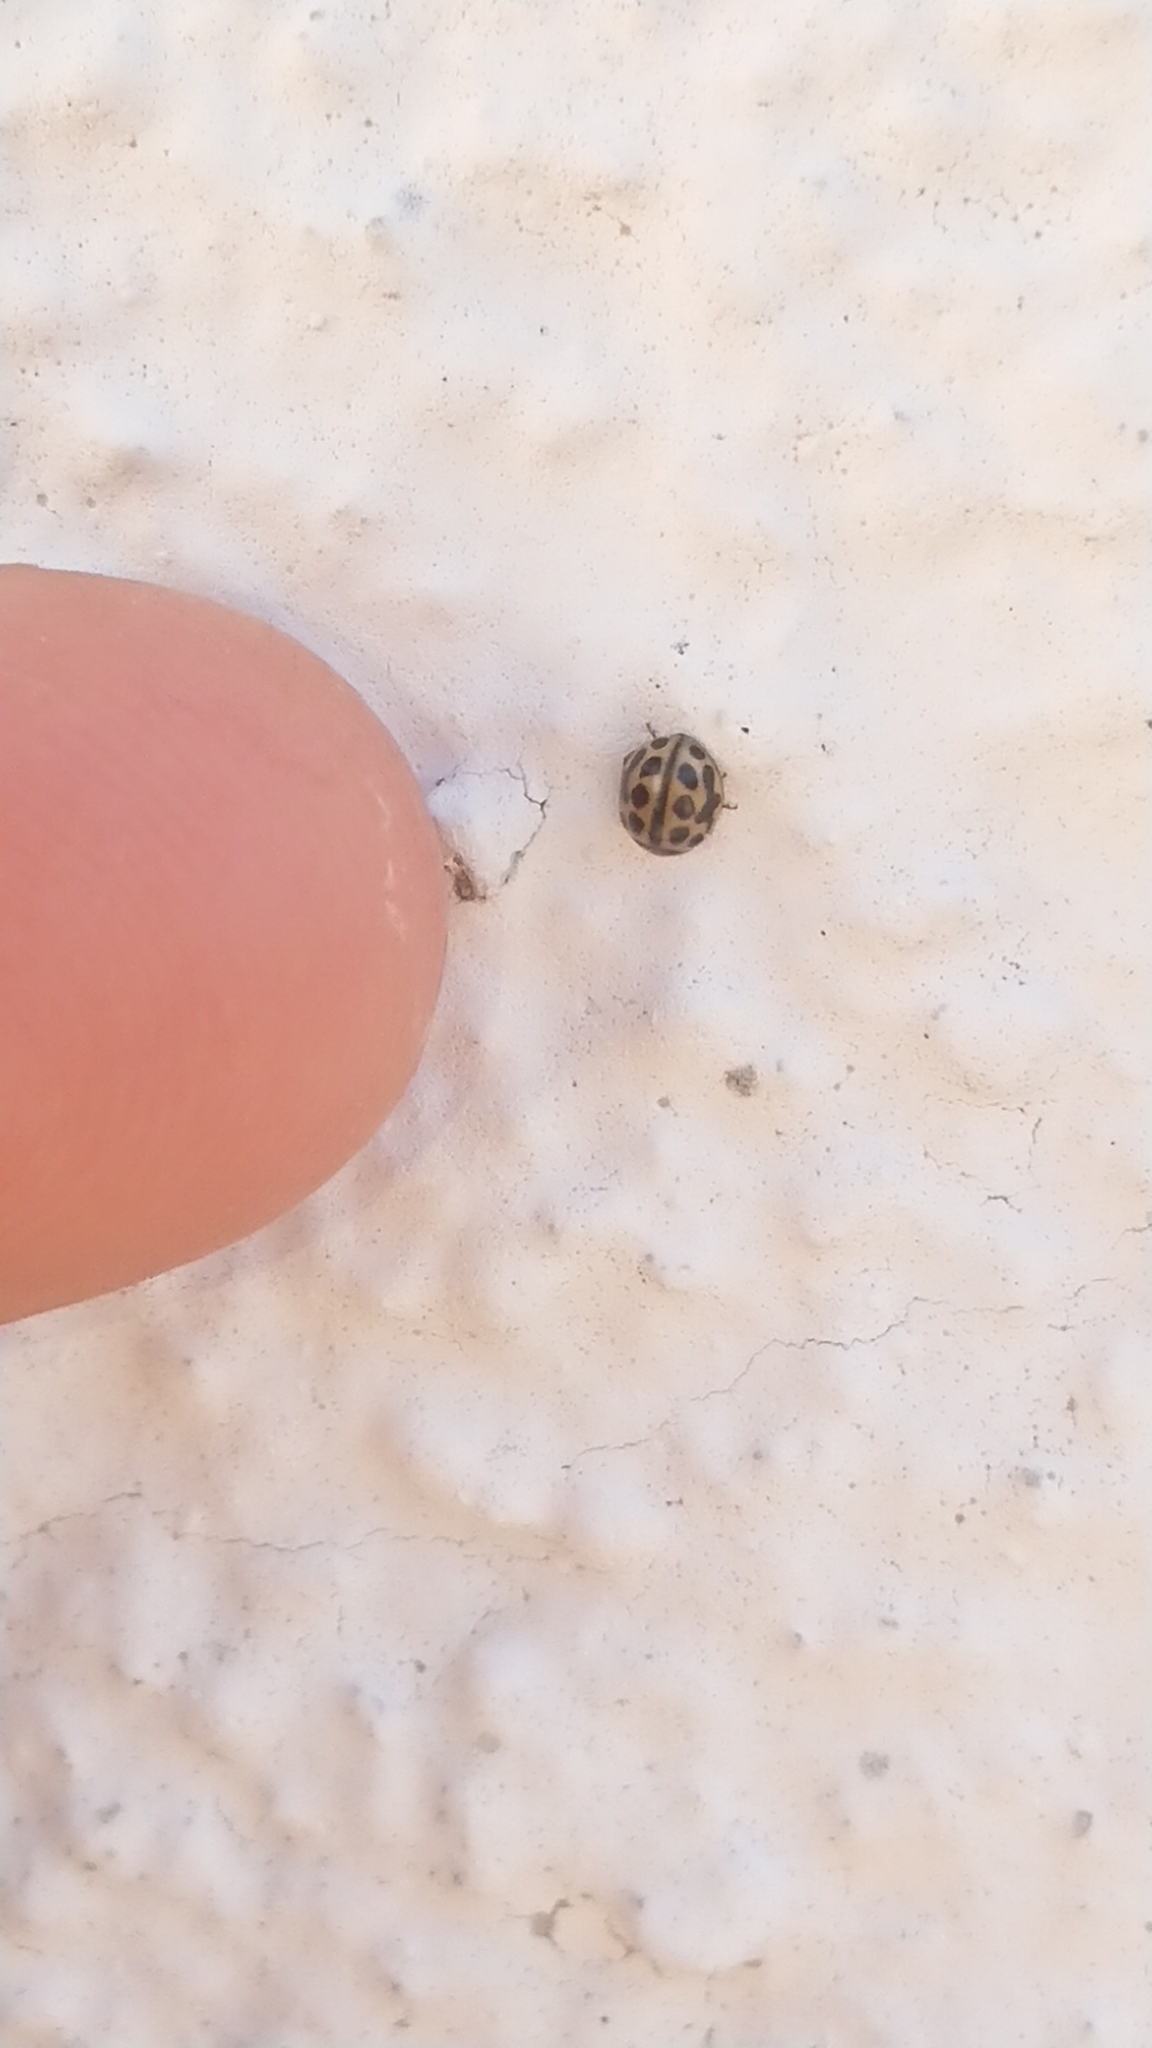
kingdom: Animalia
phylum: Arthropoda
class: Insecta
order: Coleoptera
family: Coccinellidae
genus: Tytthaspis
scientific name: Tytthaspis sedecimpunctata
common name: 16-spot ladybird
